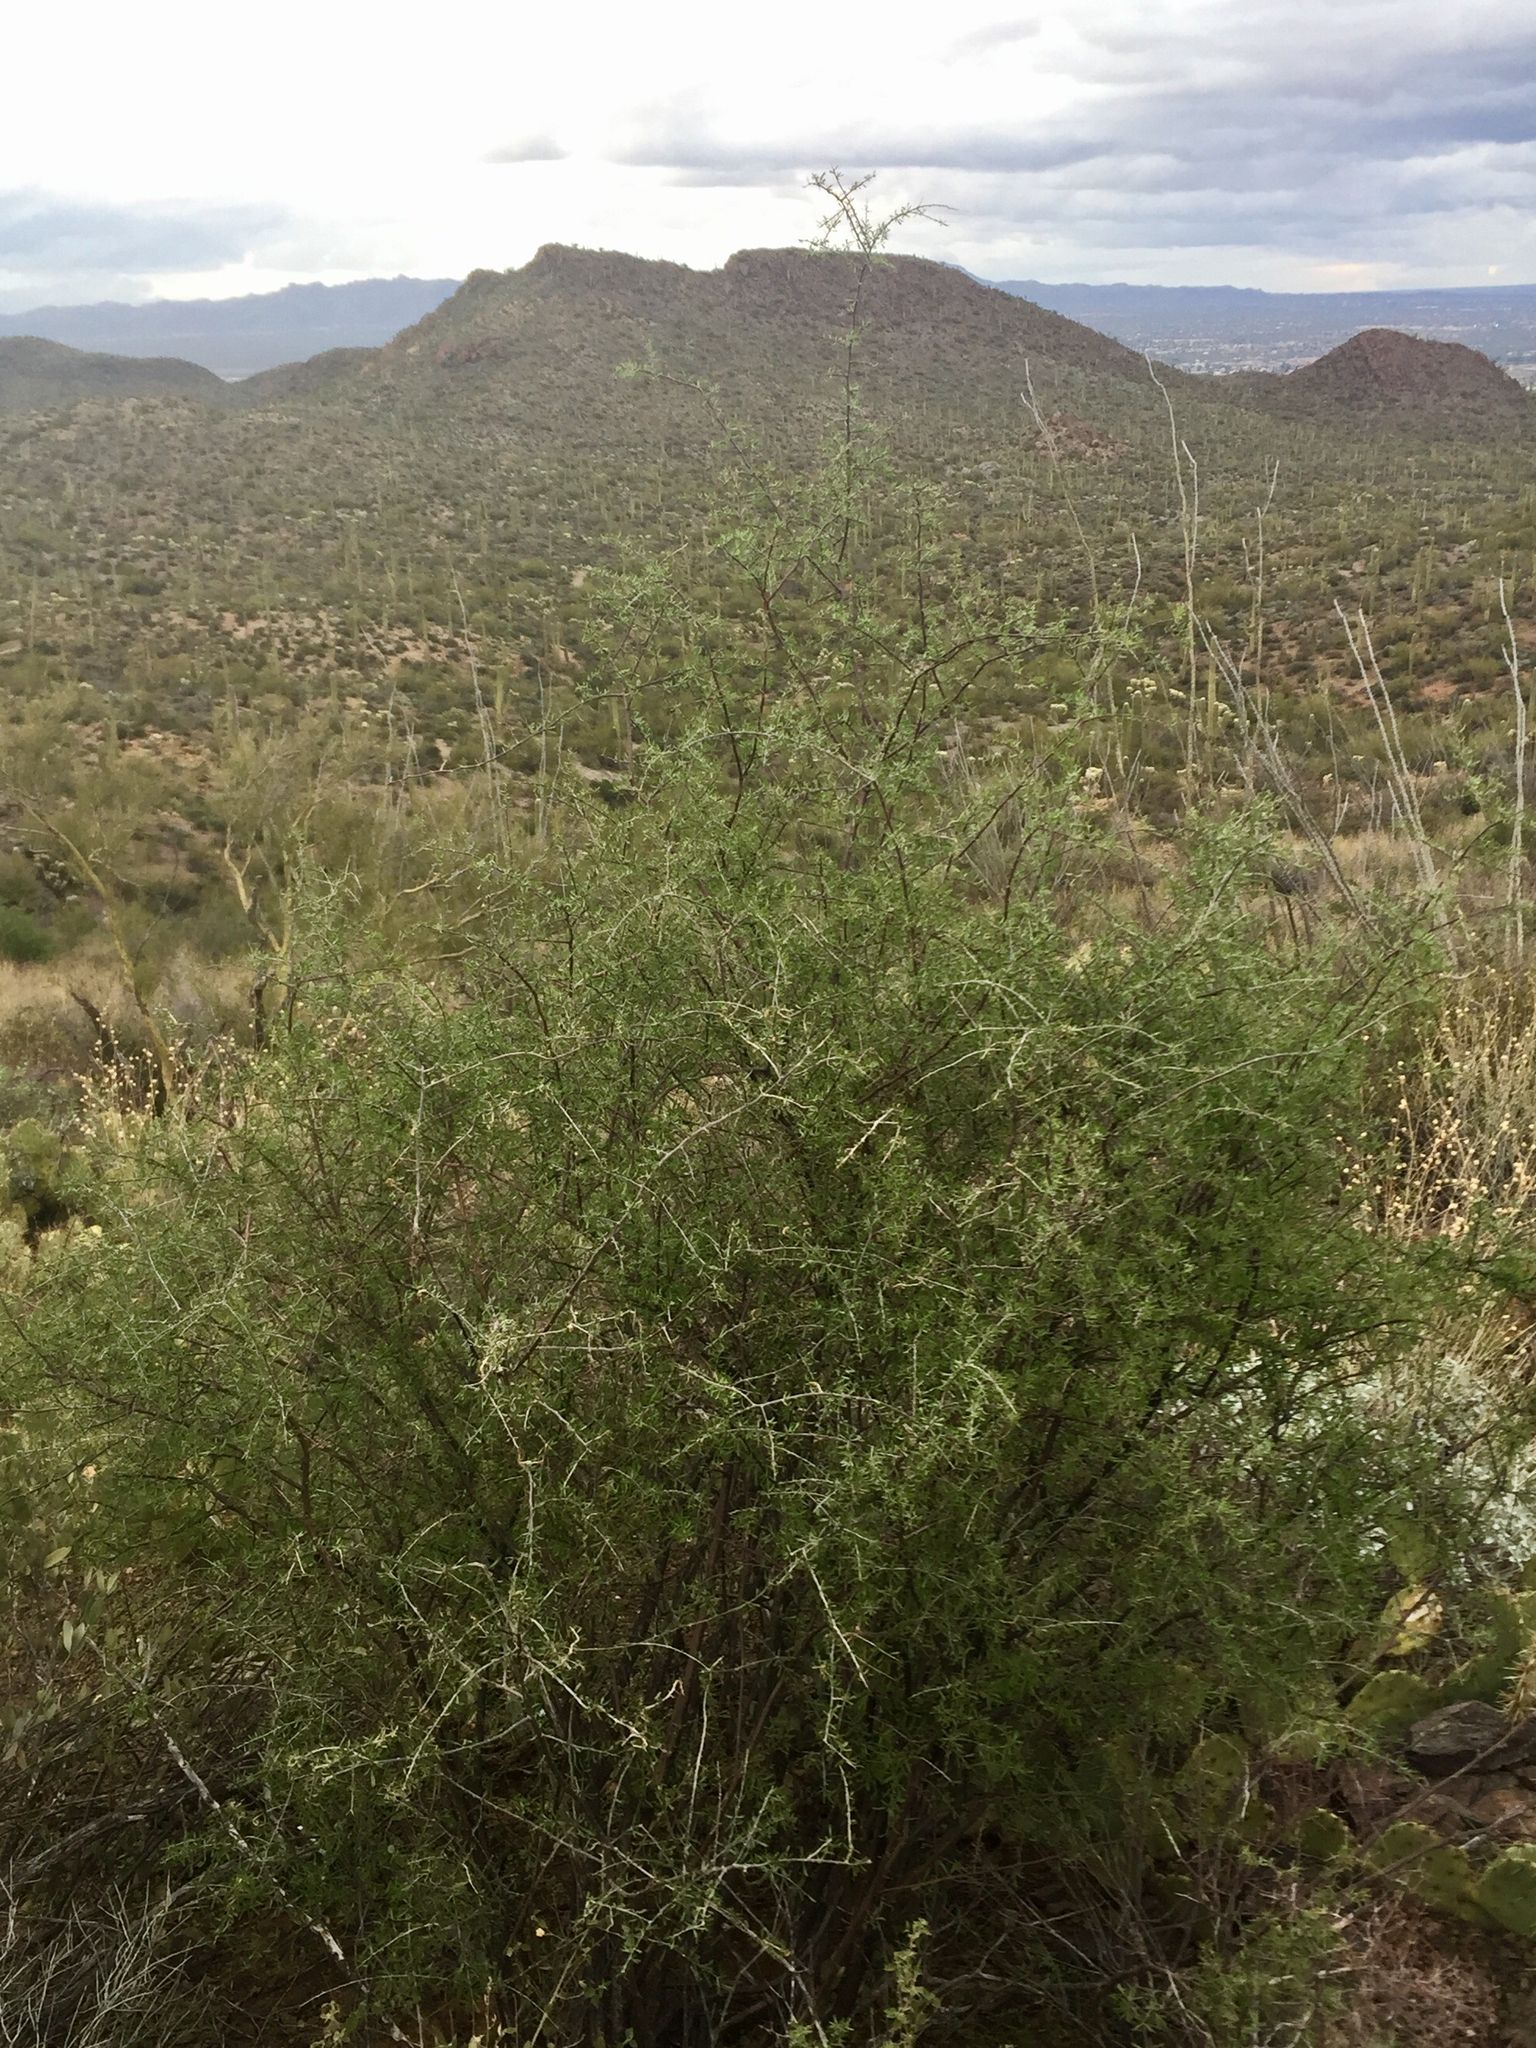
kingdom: Plantae
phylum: Tracheophyta
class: Magnoliopsida
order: Solanales
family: Solanaceae
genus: Lycium
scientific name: Lycium berlandieri
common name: Berlandier wolfberry
